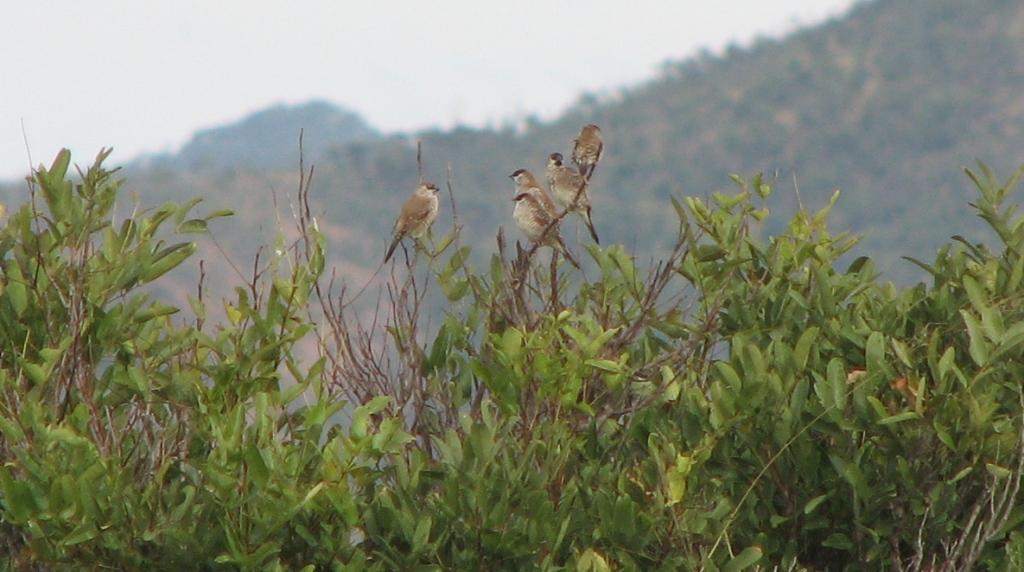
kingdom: Animalia
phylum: Chordata
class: Aves
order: Passeriformes
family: Estrildidae
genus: Neochmia
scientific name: Neochmia modesta
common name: Plum-headed finch
